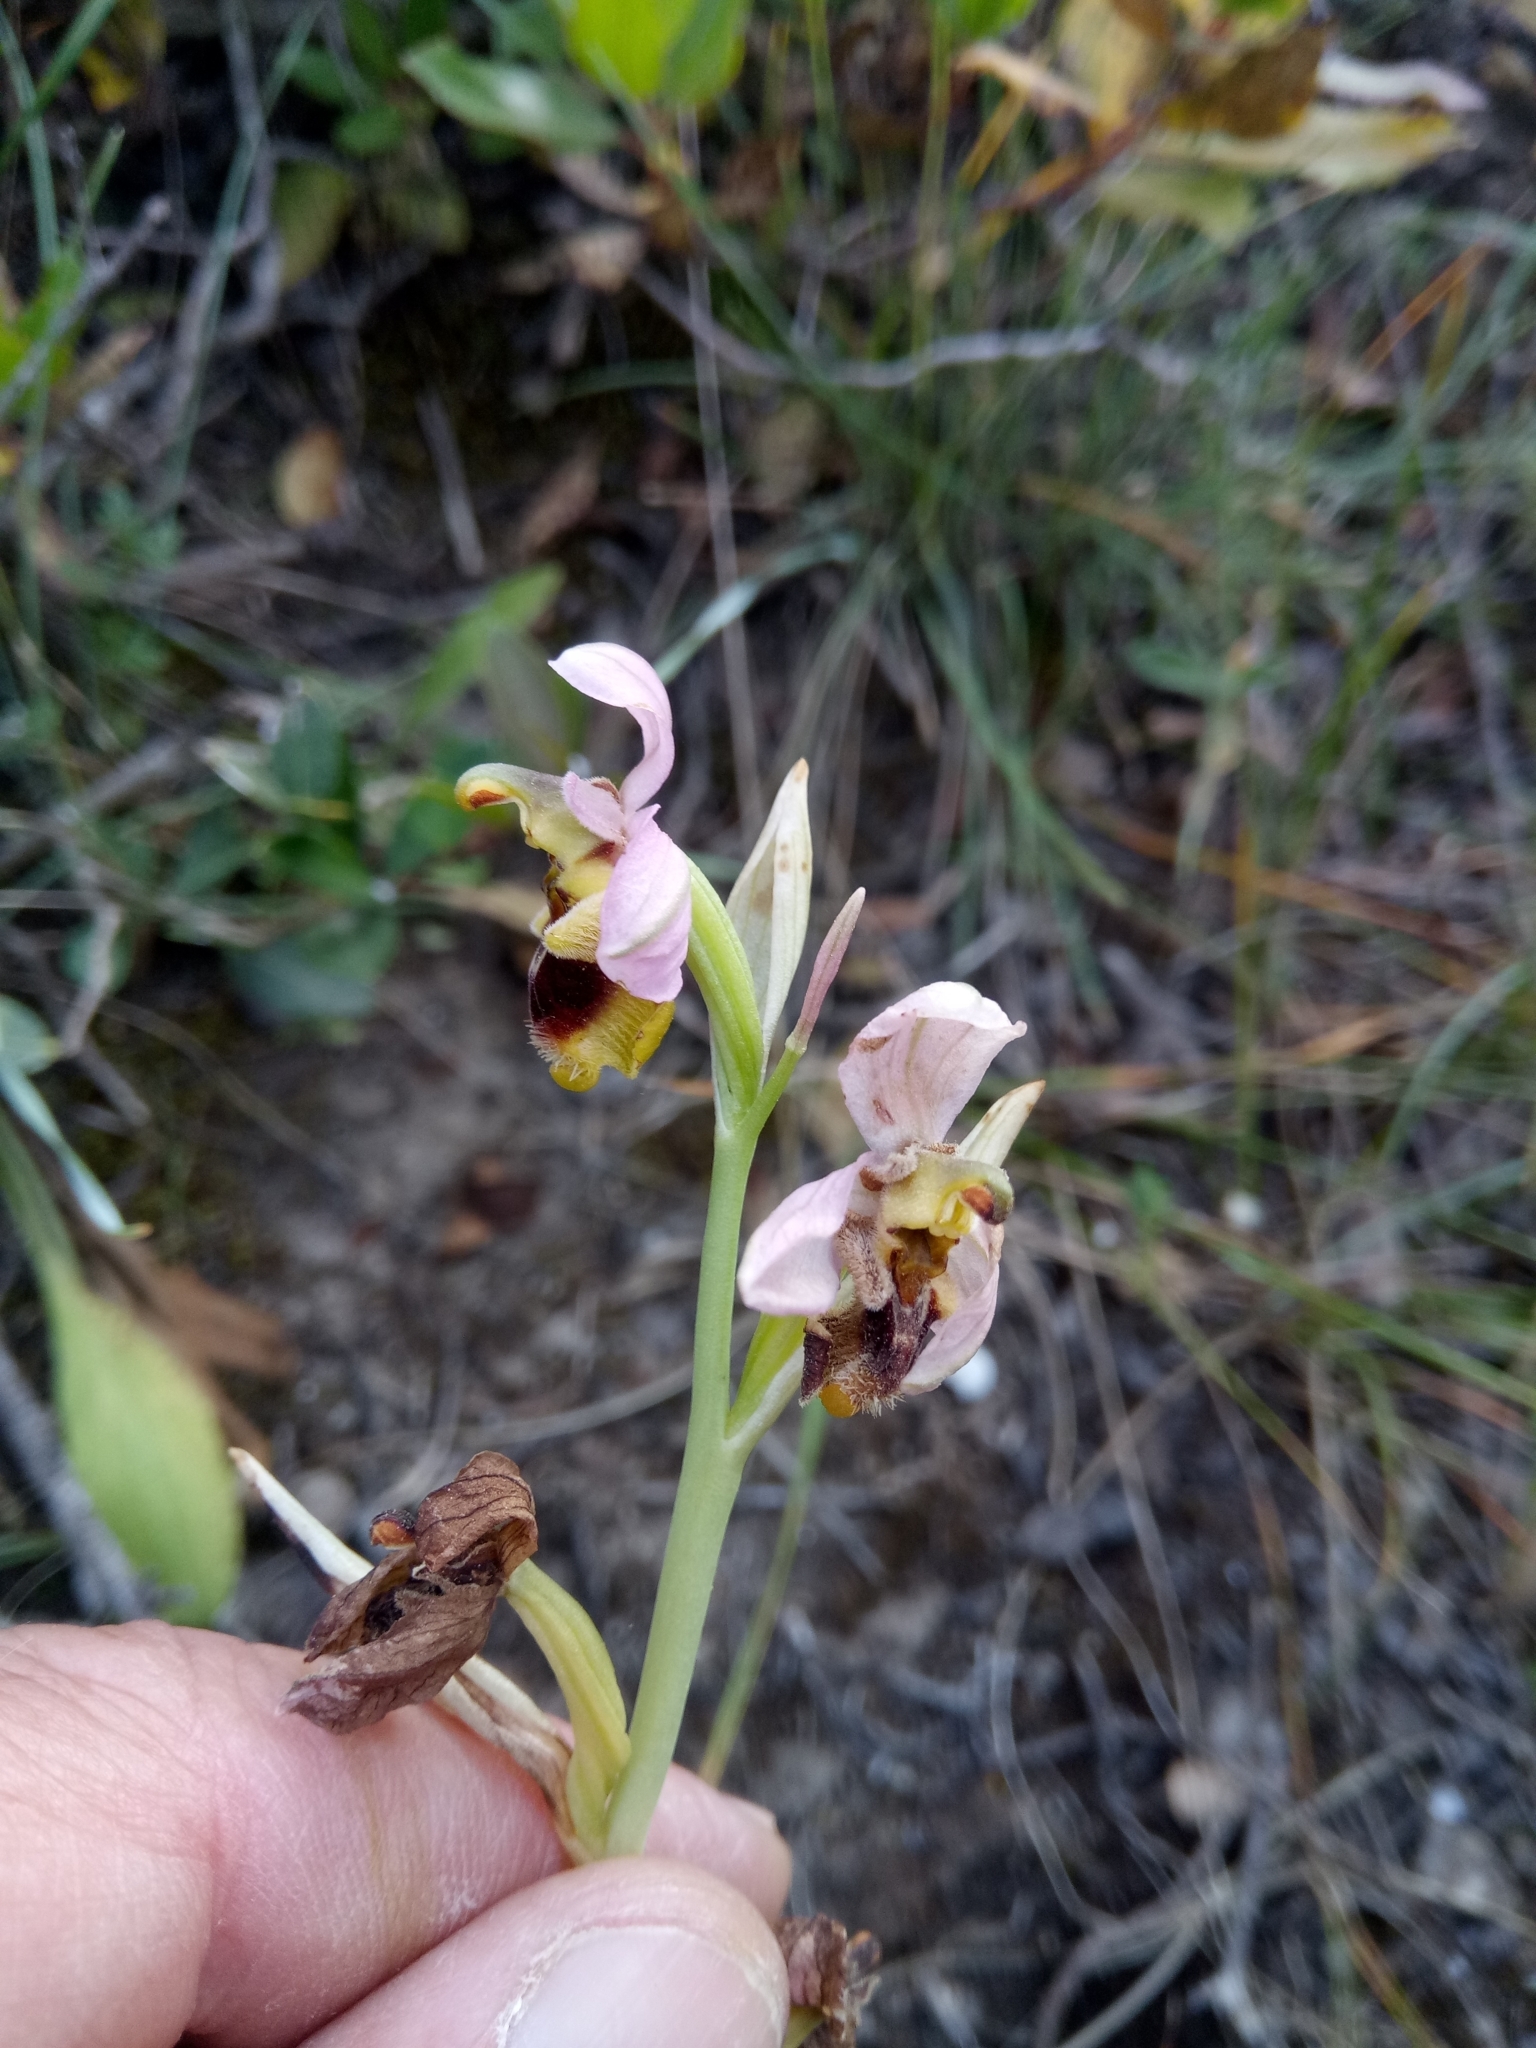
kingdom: Plantae
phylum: Tracheophyta
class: Liliopsida
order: Asparagales
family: Orchidaceae
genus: Ophrys
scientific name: Ophrys tenthredinifera
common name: Sawfly orchid
